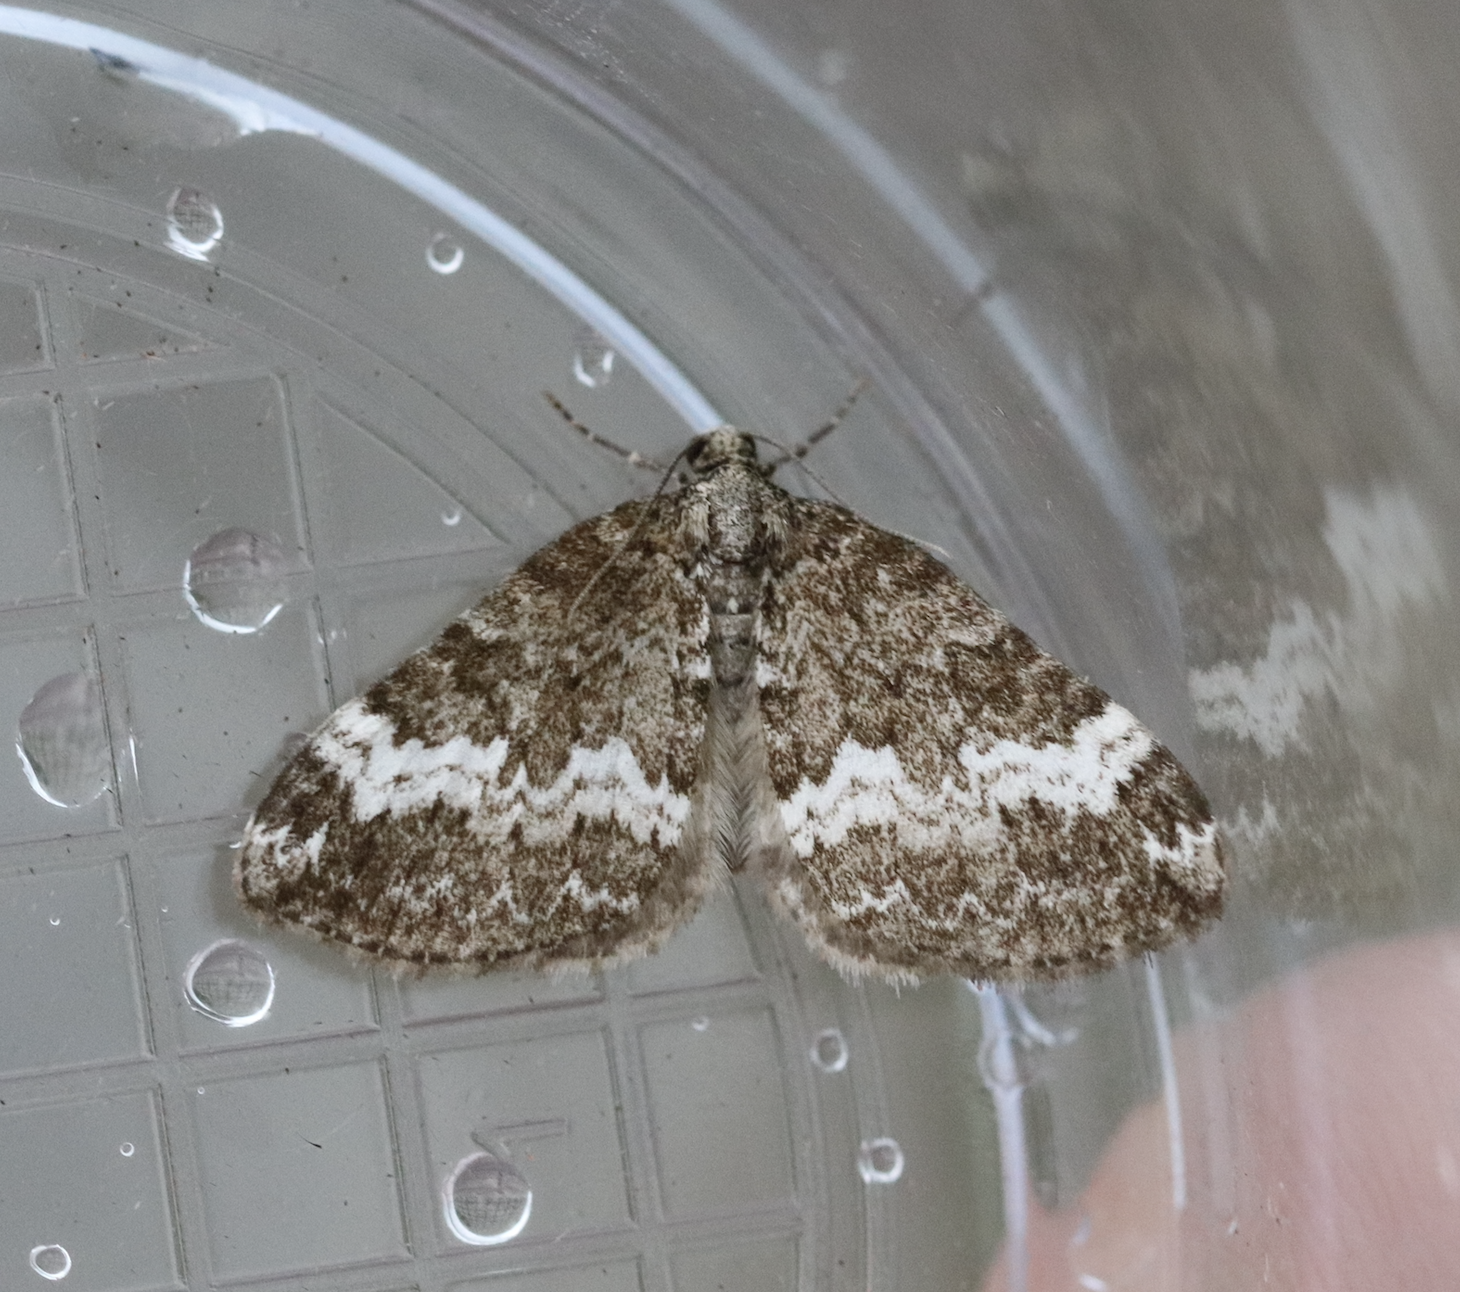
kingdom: Animalia
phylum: Arthropoda
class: Insecta
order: Lepidoptera
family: Geometridae
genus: Perizoma
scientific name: Perizoma alchemillata
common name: Small rivulet
